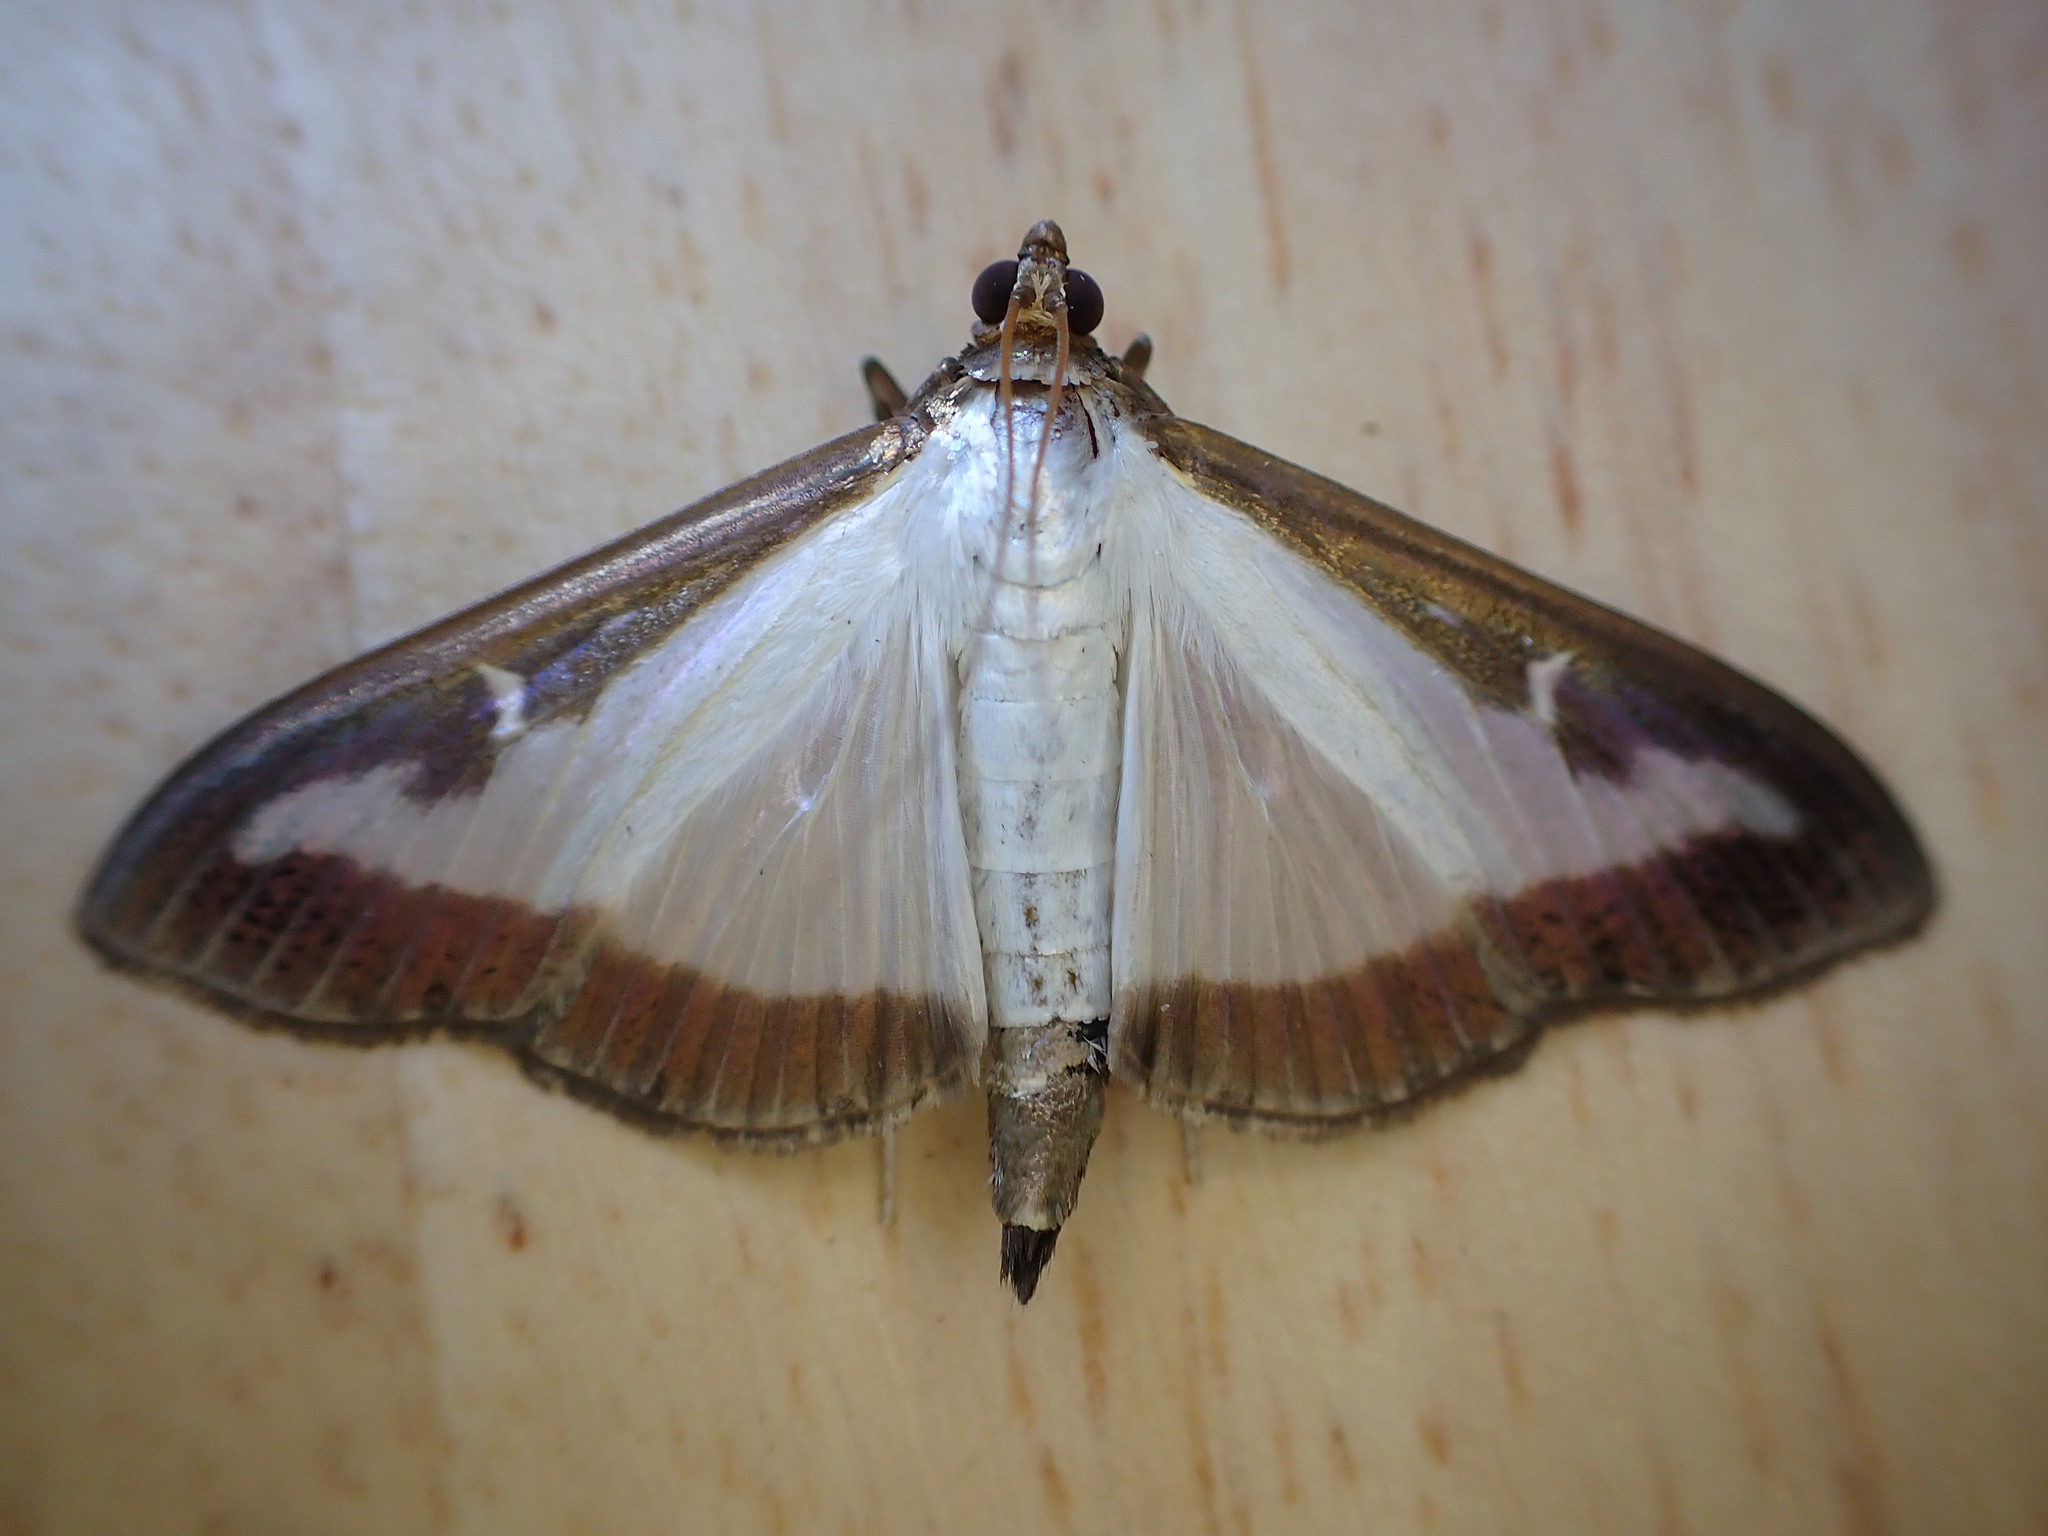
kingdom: Animalia
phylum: Arthropoda
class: Insecta
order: Lepidoptera
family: Crambidae
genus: Cydalima
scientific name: Cydalima perspectalis
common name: Box tree moth
